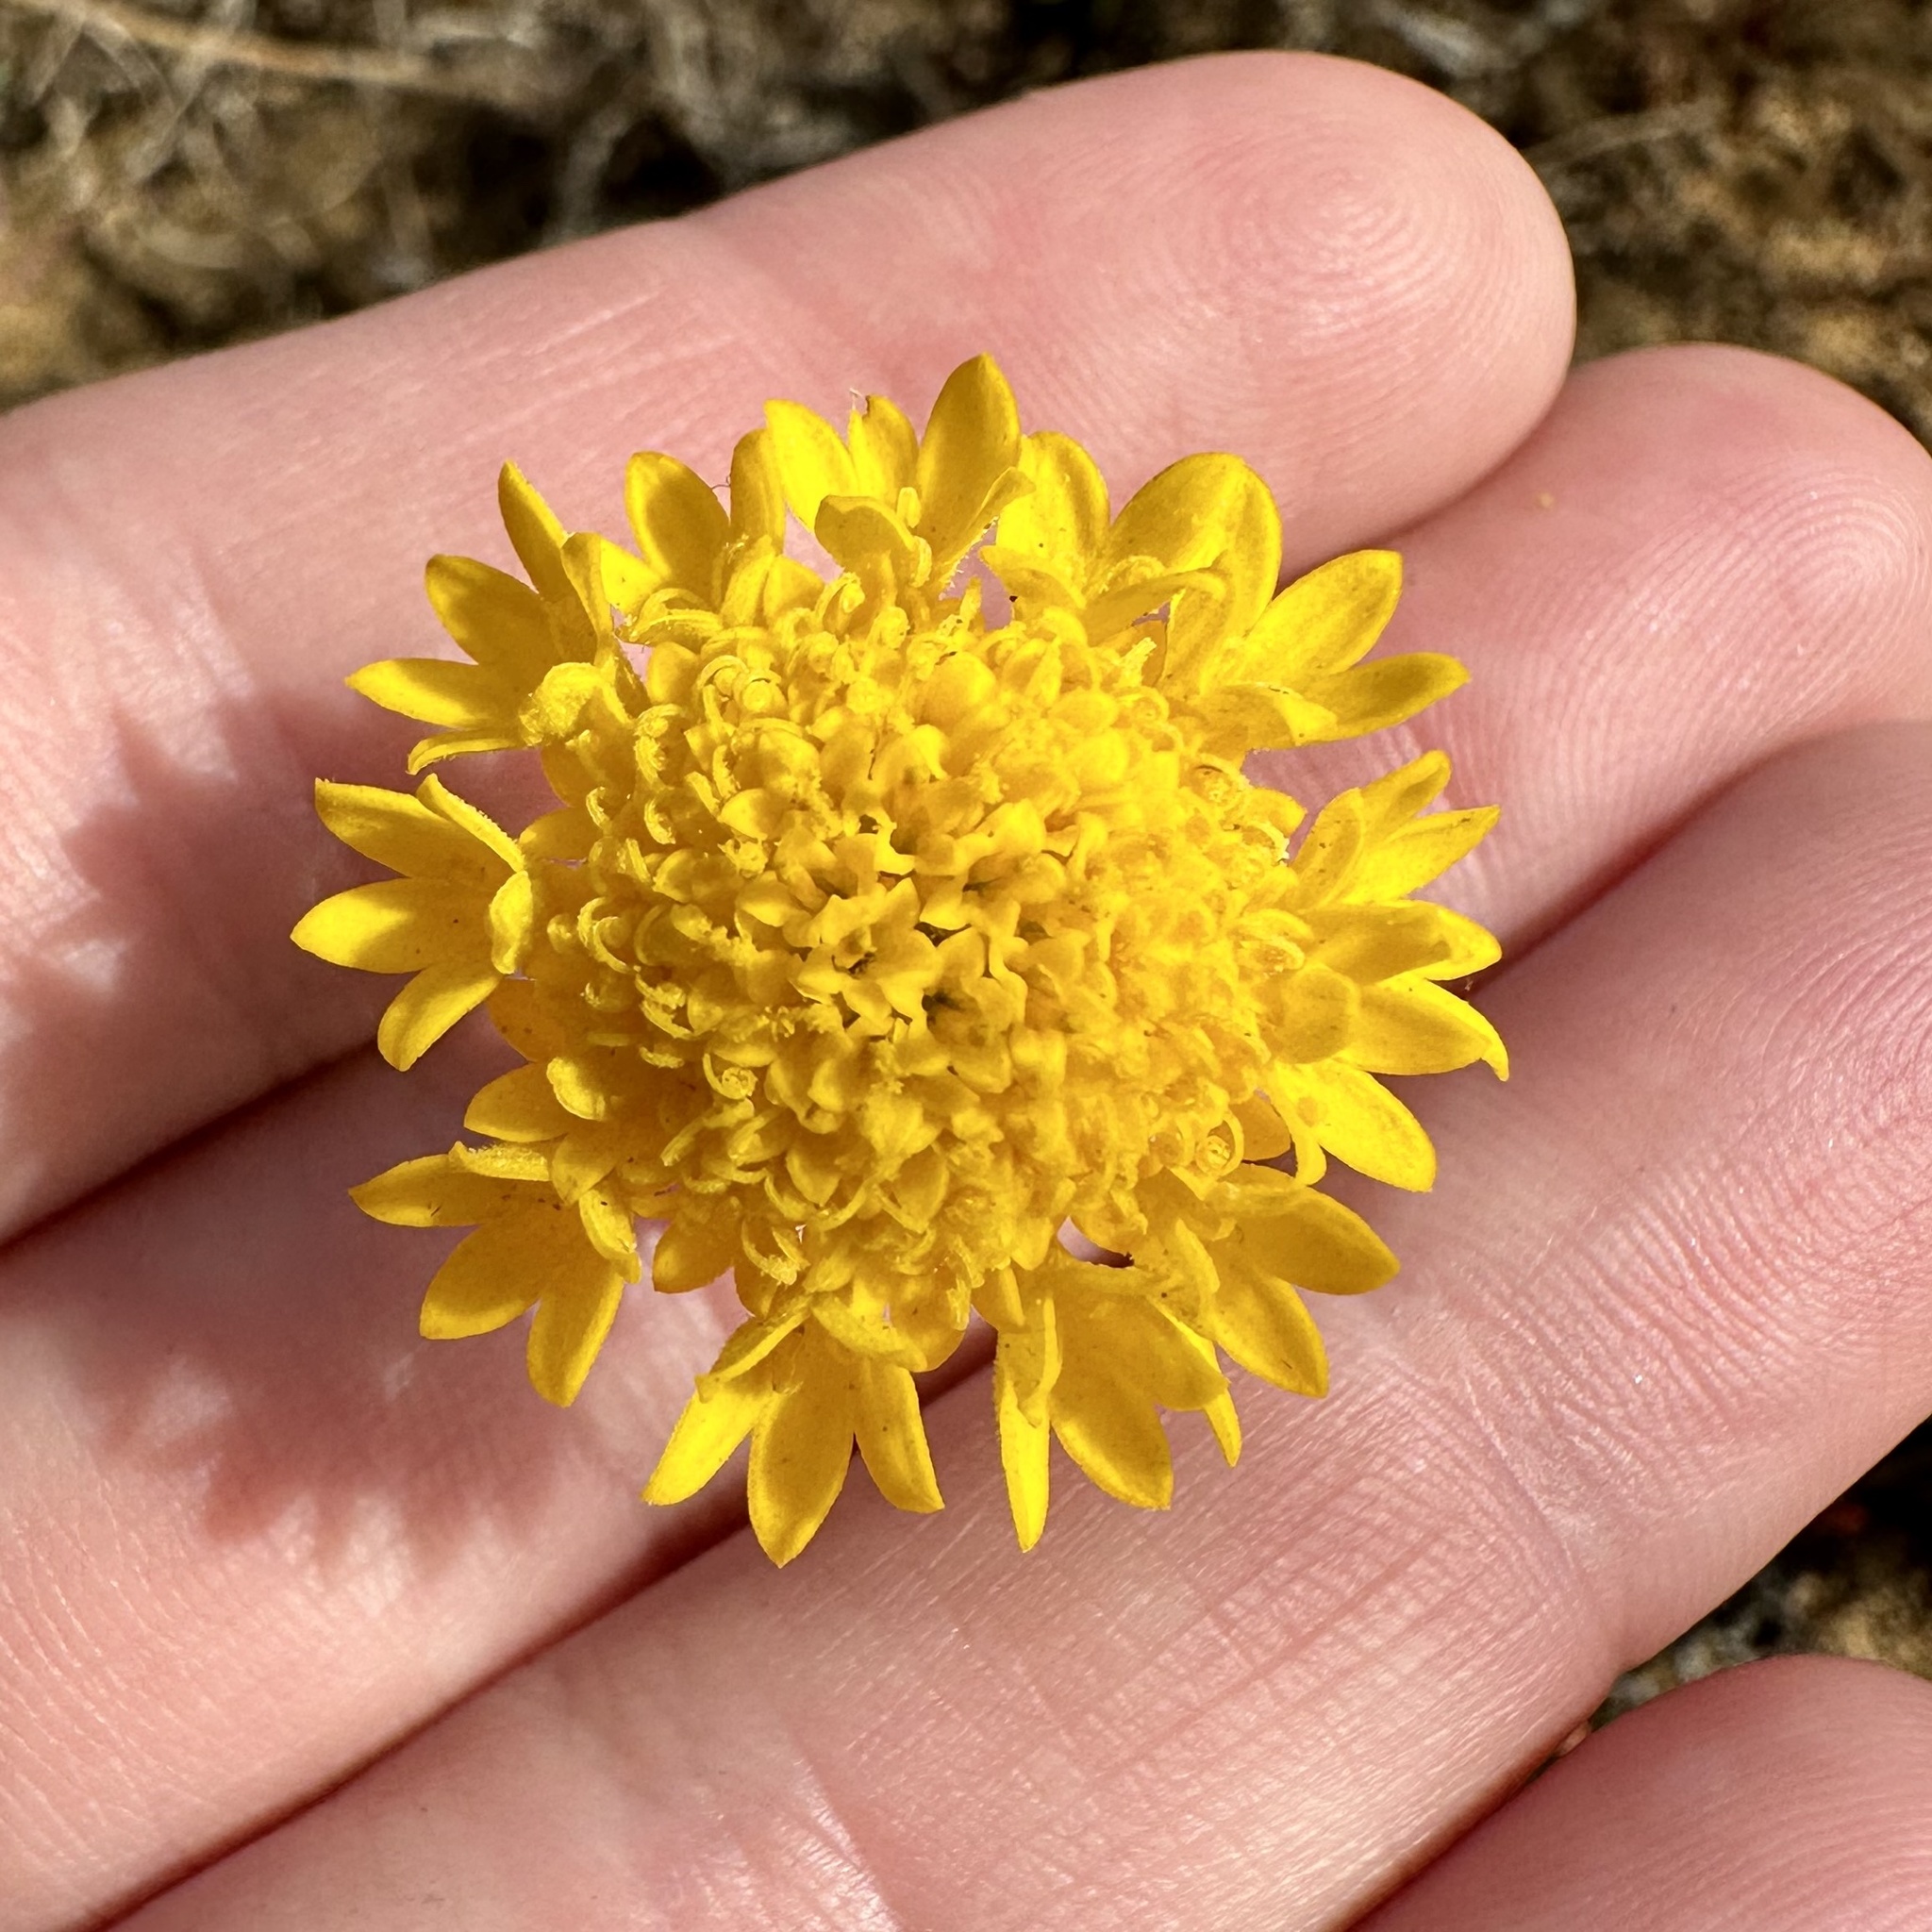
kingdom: Plantae
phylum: Tracheophyta
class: Magnoliopsida
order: Asterales
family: Asteraceae
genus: Chaenactis
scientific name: Chaenactis glabriuscula
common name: Yellow pincushion
